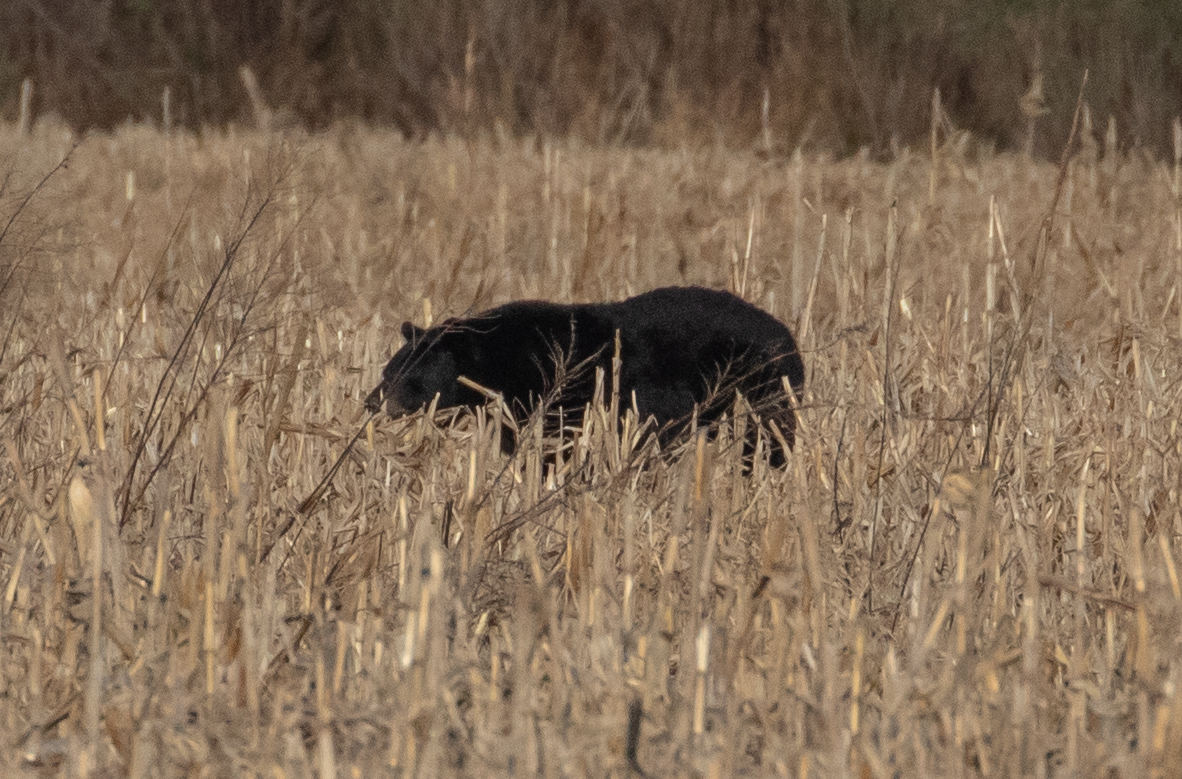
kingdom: Animalia
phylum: Chordata
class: Mammalia
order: Carnivora
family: Ursidae
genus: Ursus
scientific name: Ursus americanus
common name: American black bear
